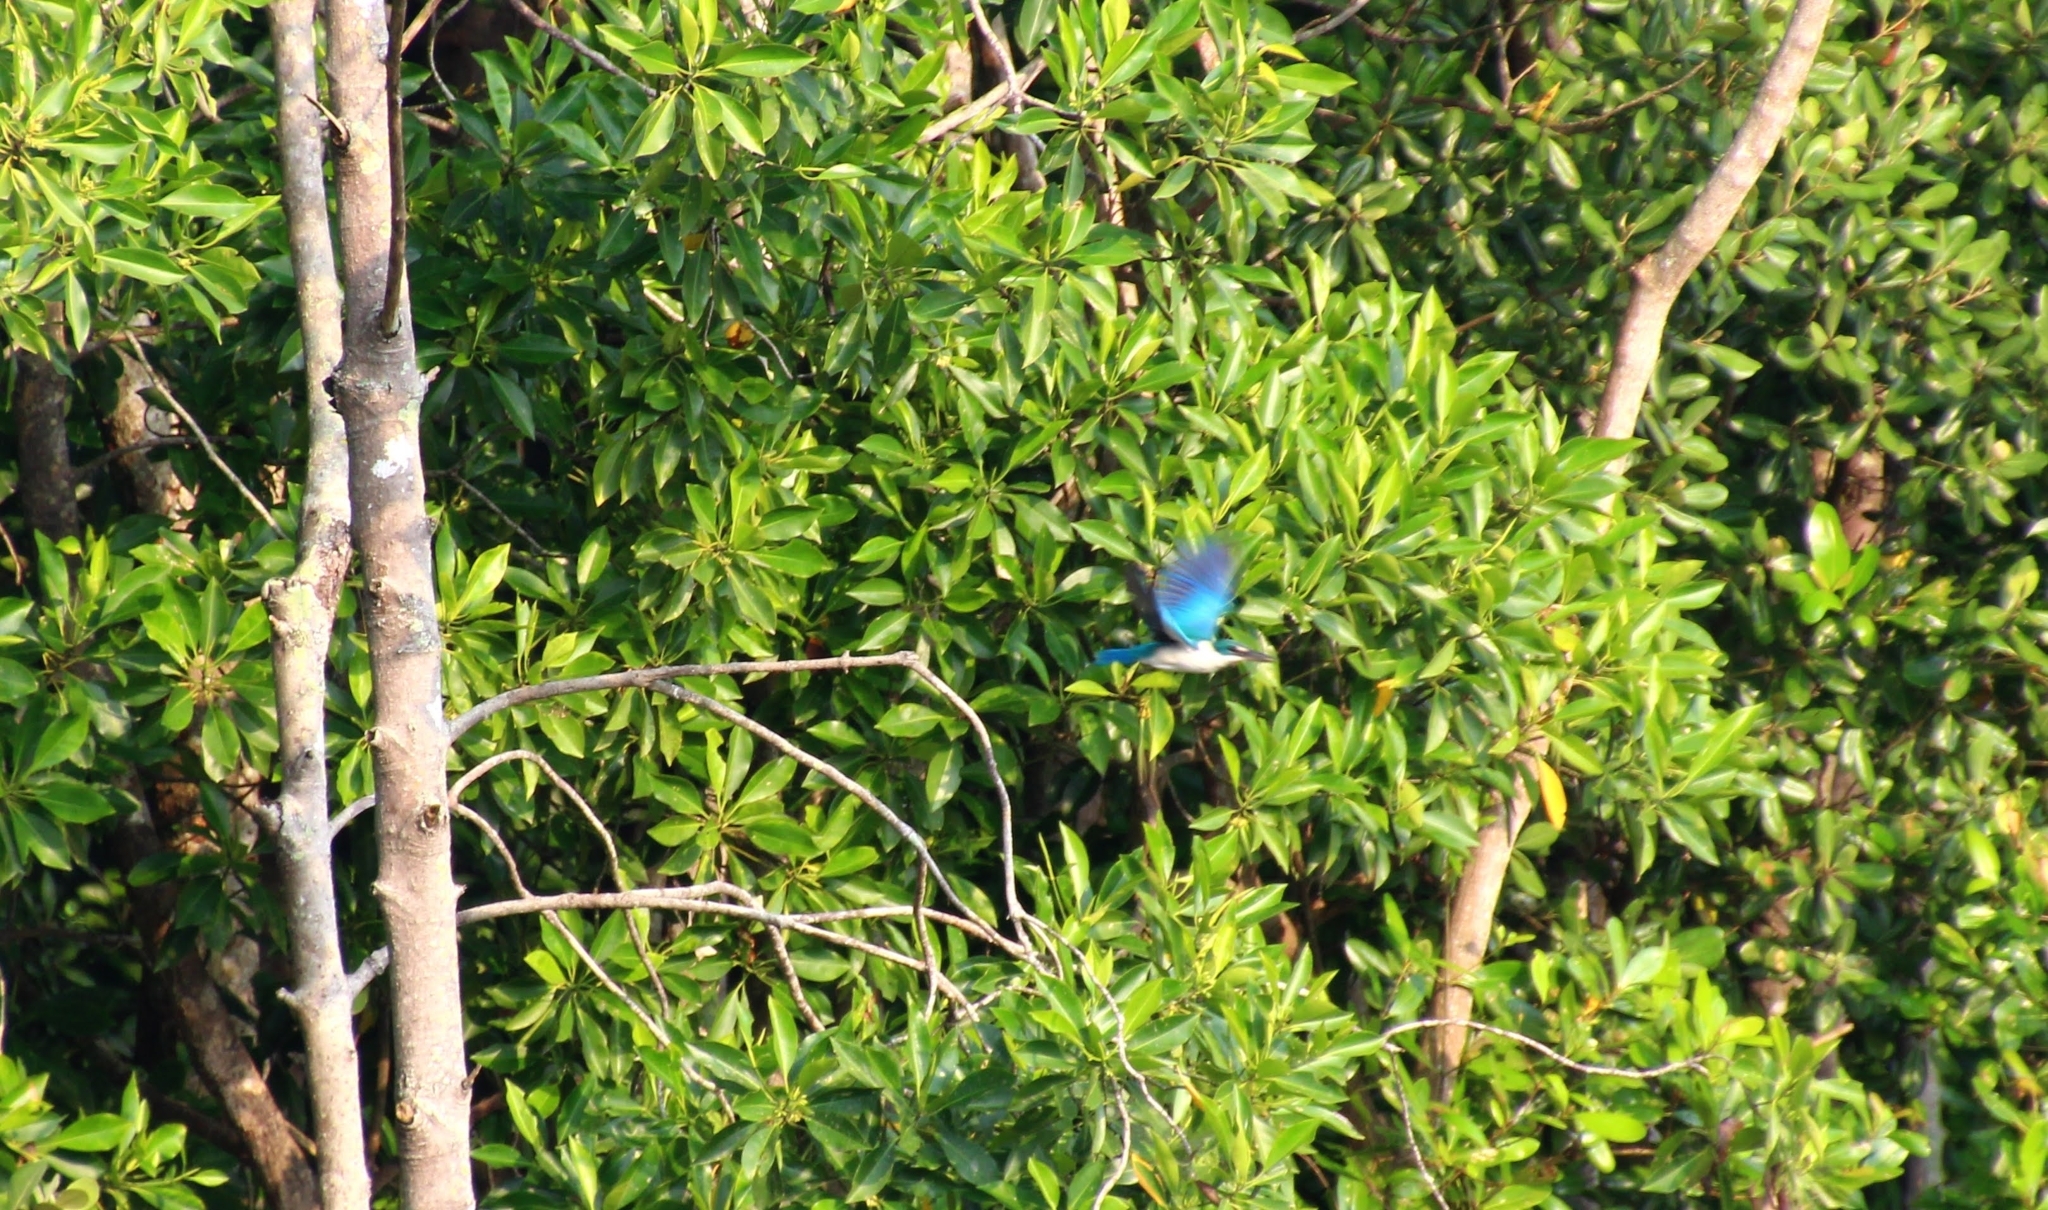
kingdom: Animalia
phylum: Chordata
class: Aves
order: Coraciiformes
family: Alcedinidae
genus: Todiramphus
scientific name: Todiramphus chloris
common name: Collared kingfisher
